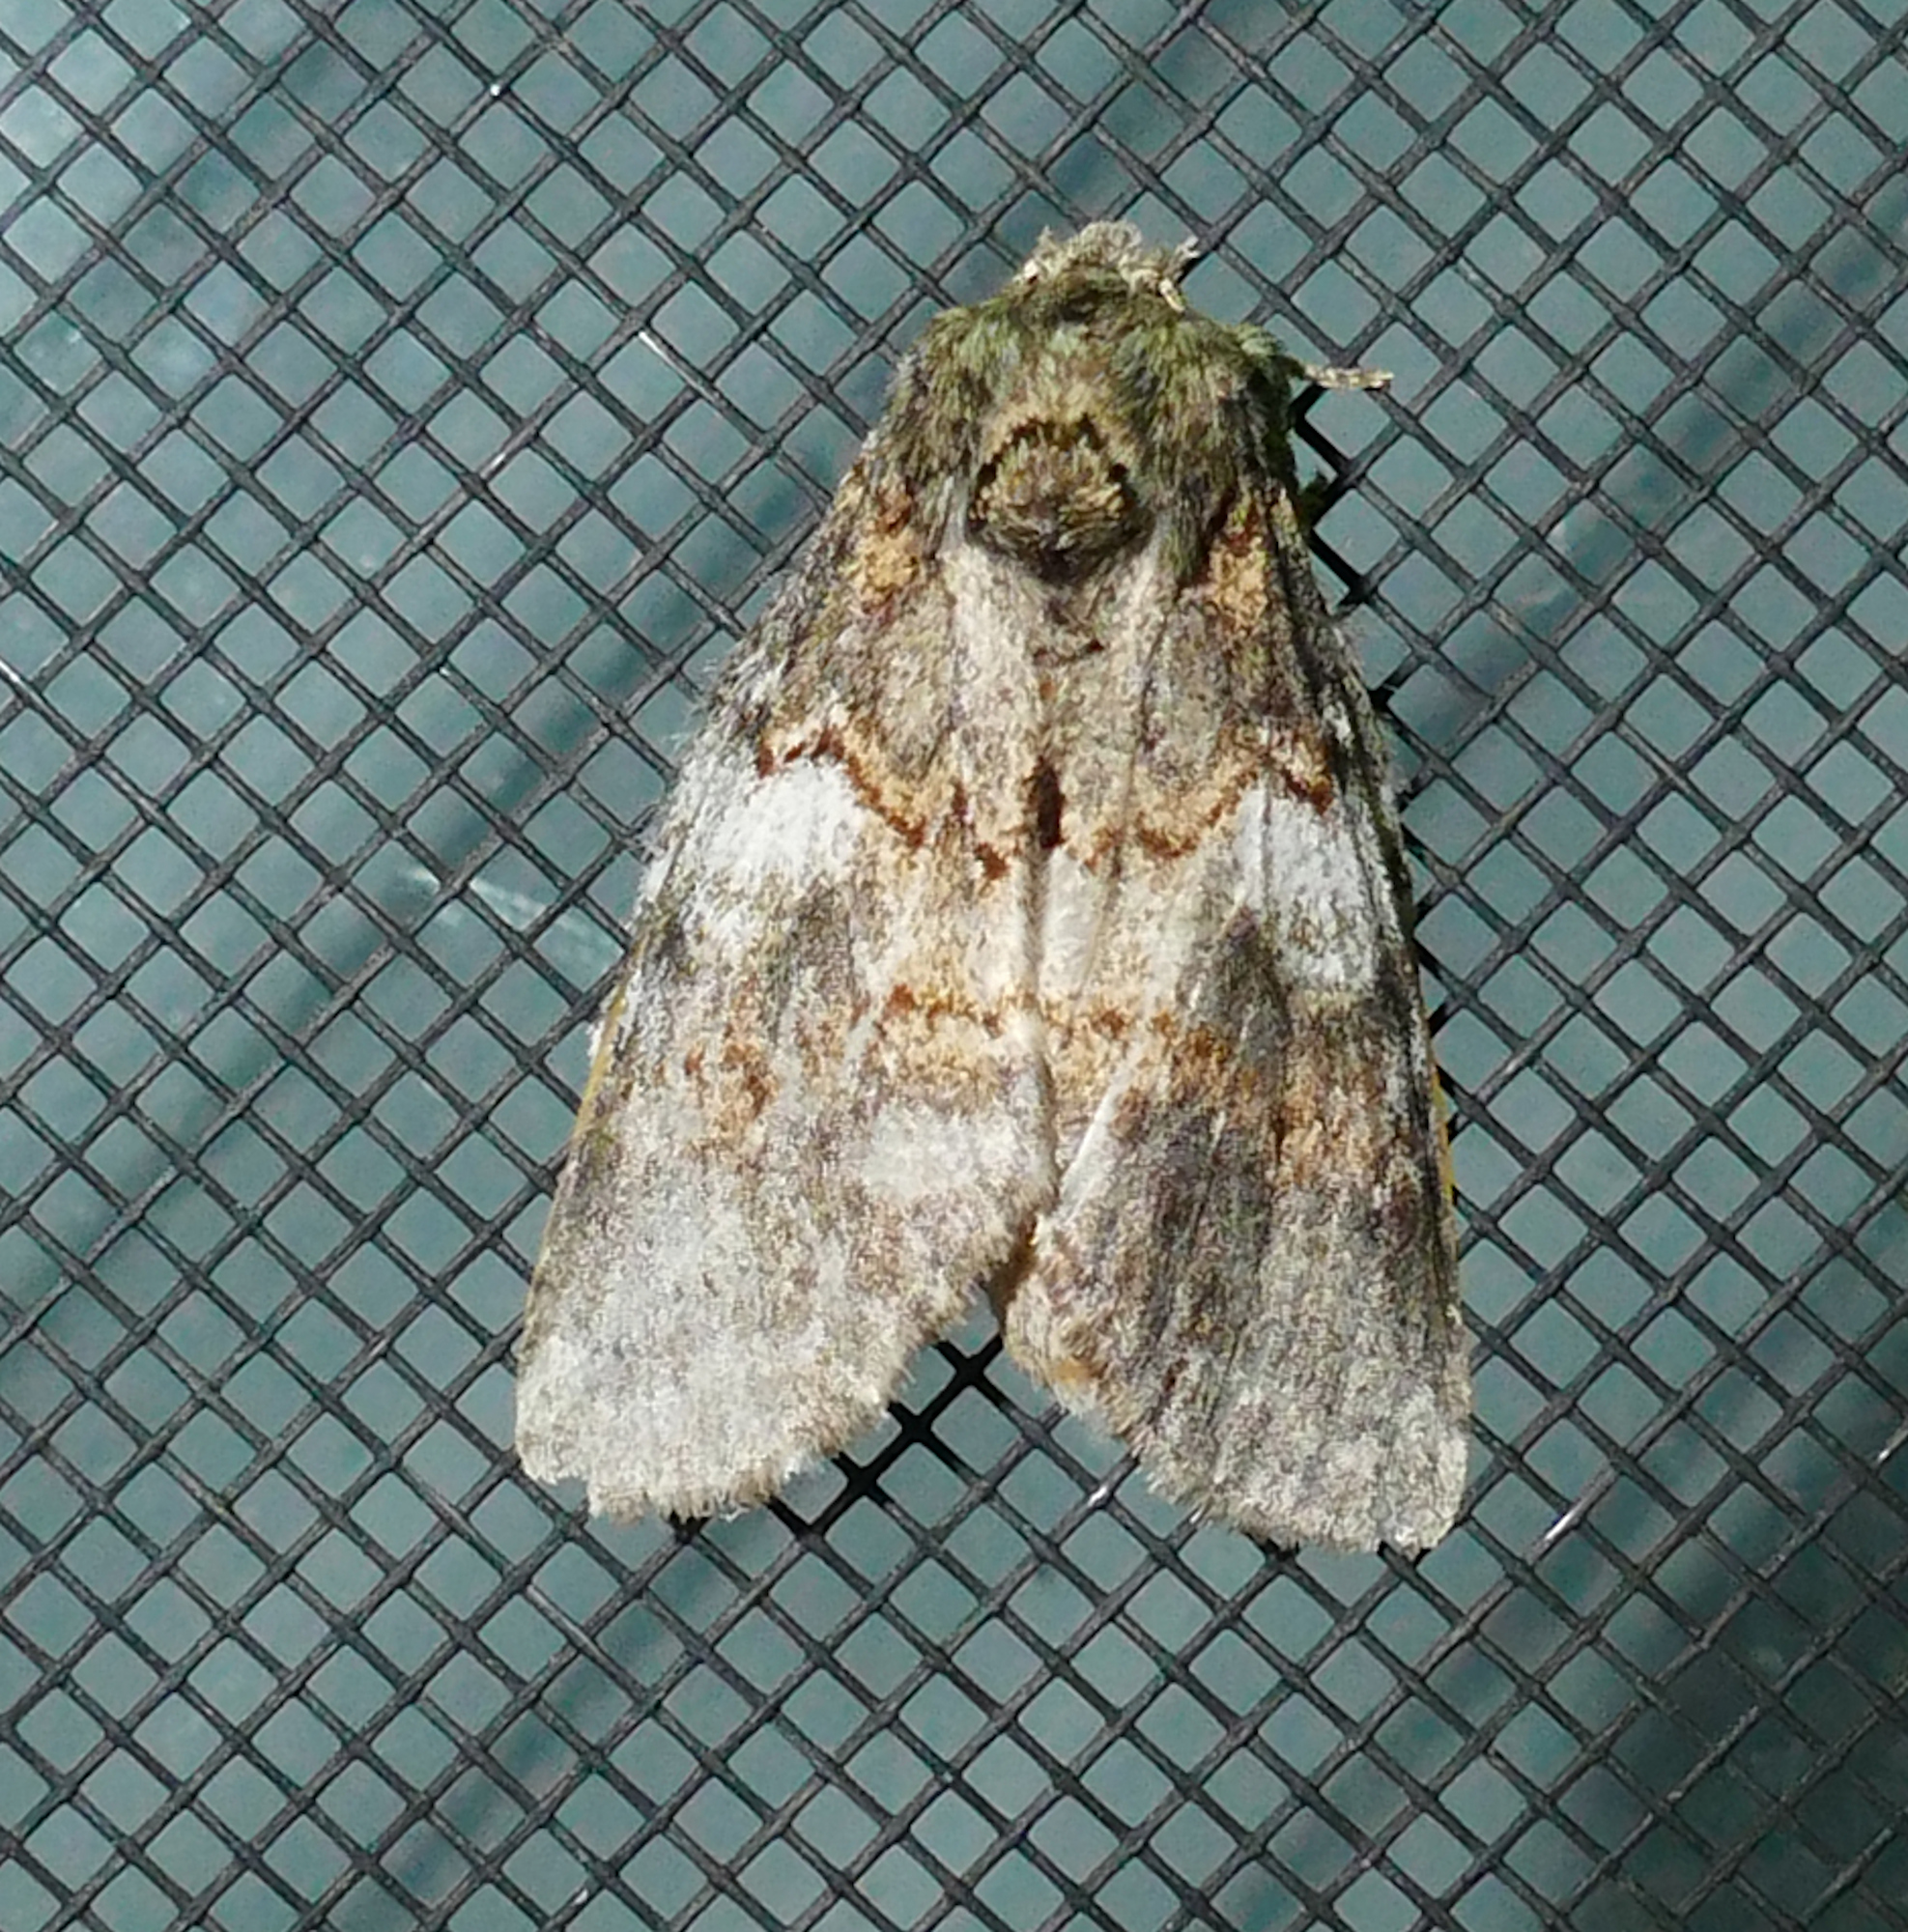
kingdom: Animalia
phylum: Arthropoda
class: Insecta
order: Lepidoptera
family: Notodontidae
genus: Peridea
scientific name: Peridea angulosa
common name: Angulose prominent
